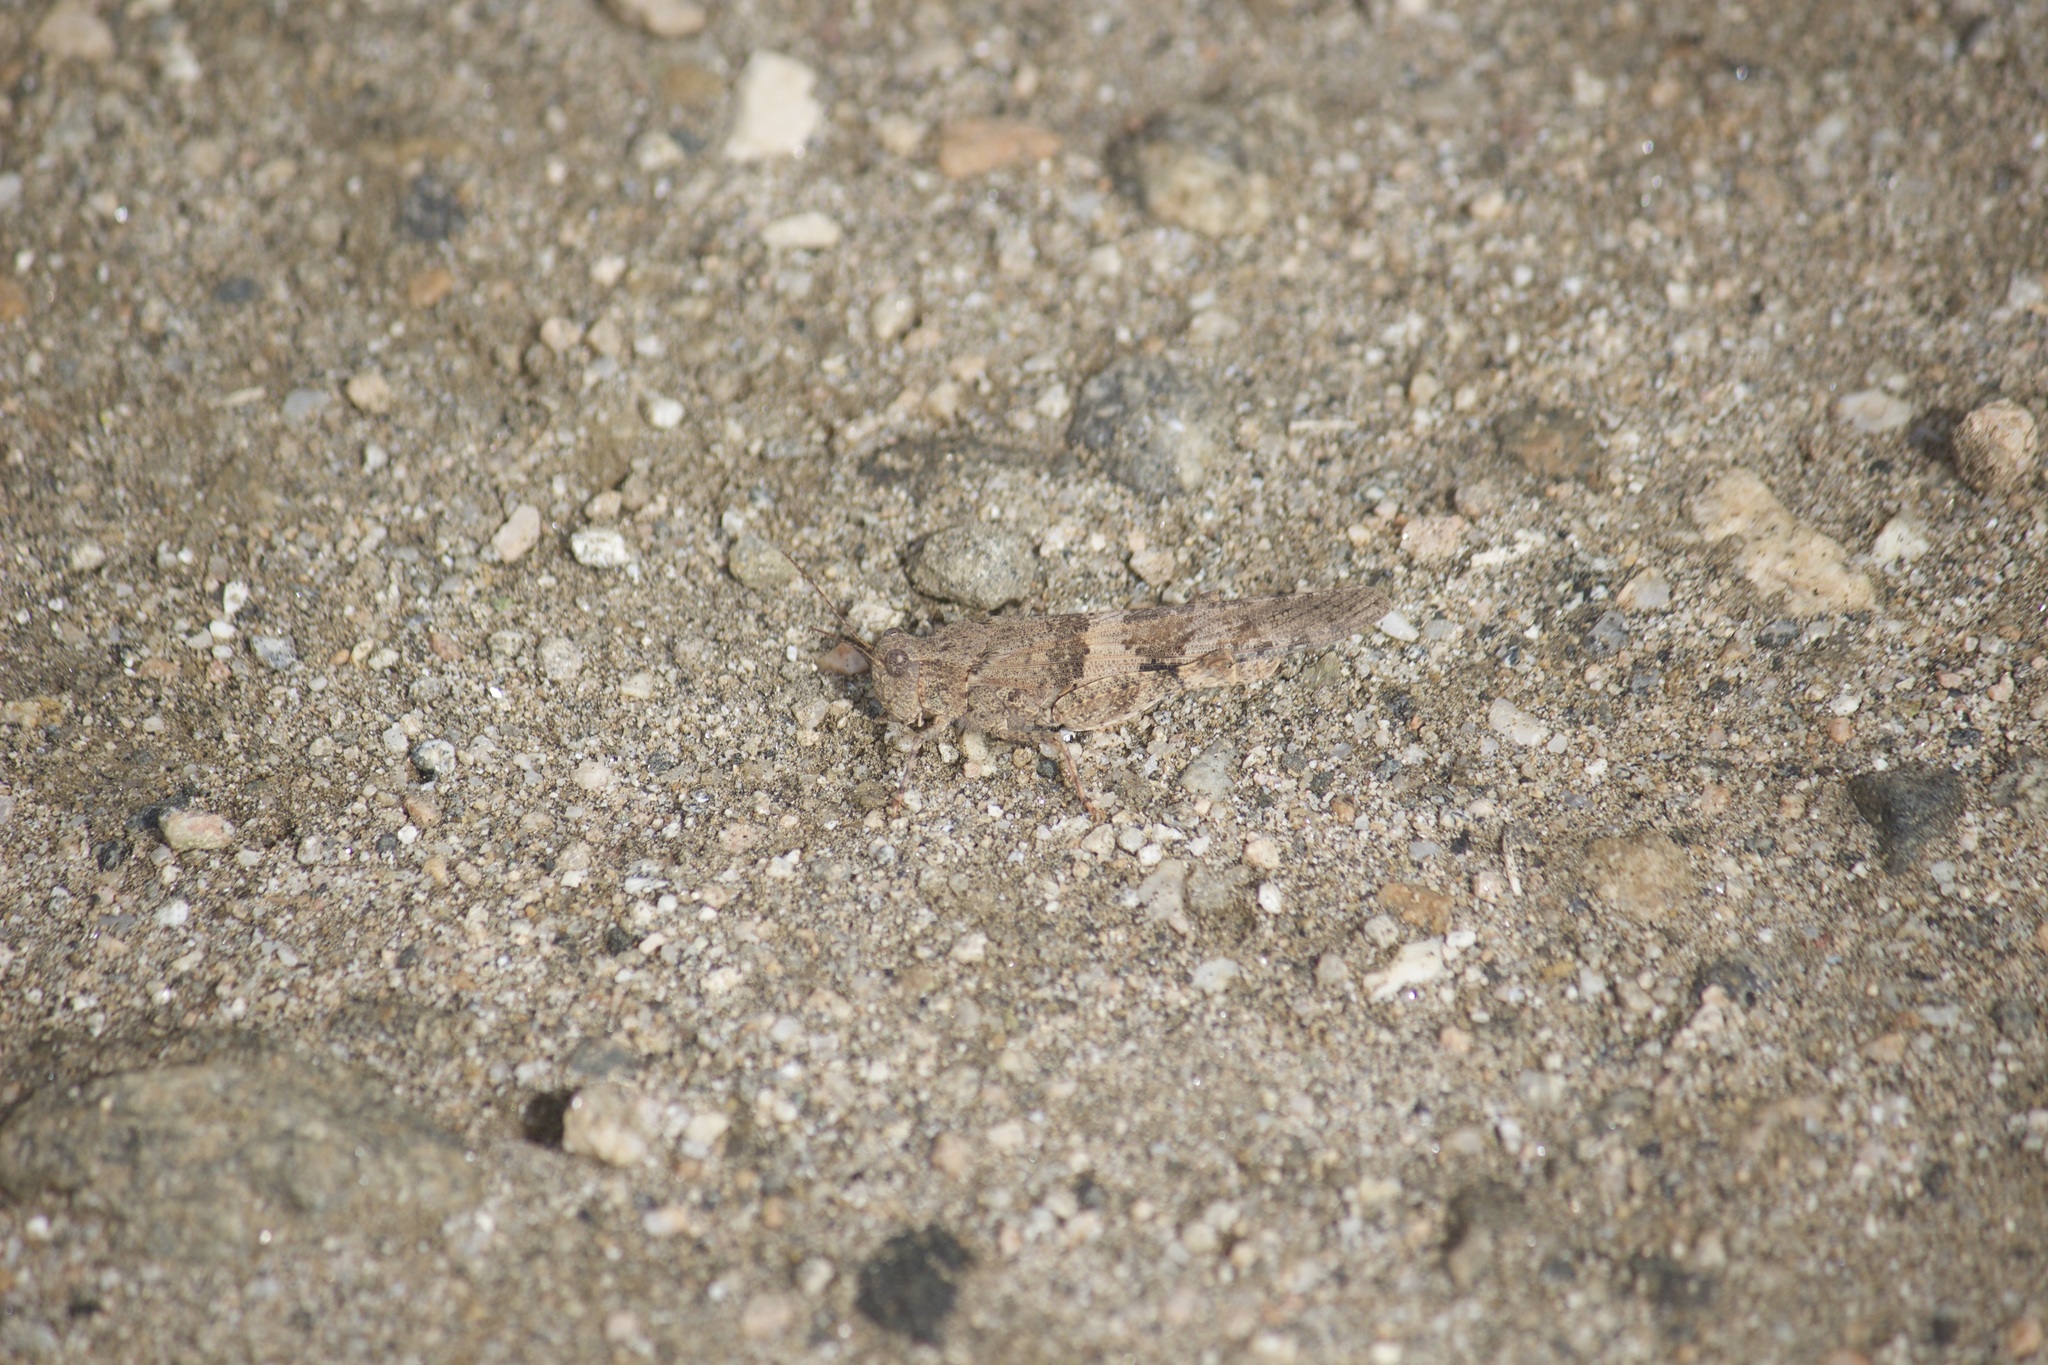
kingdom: Animalia
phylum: Arthropoda
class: Insecta
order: Orthoptera
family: Acrididae
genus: Trimerotropis
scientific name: Trimerotropis pallidipennis
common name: Pallid-winged grasshopper
